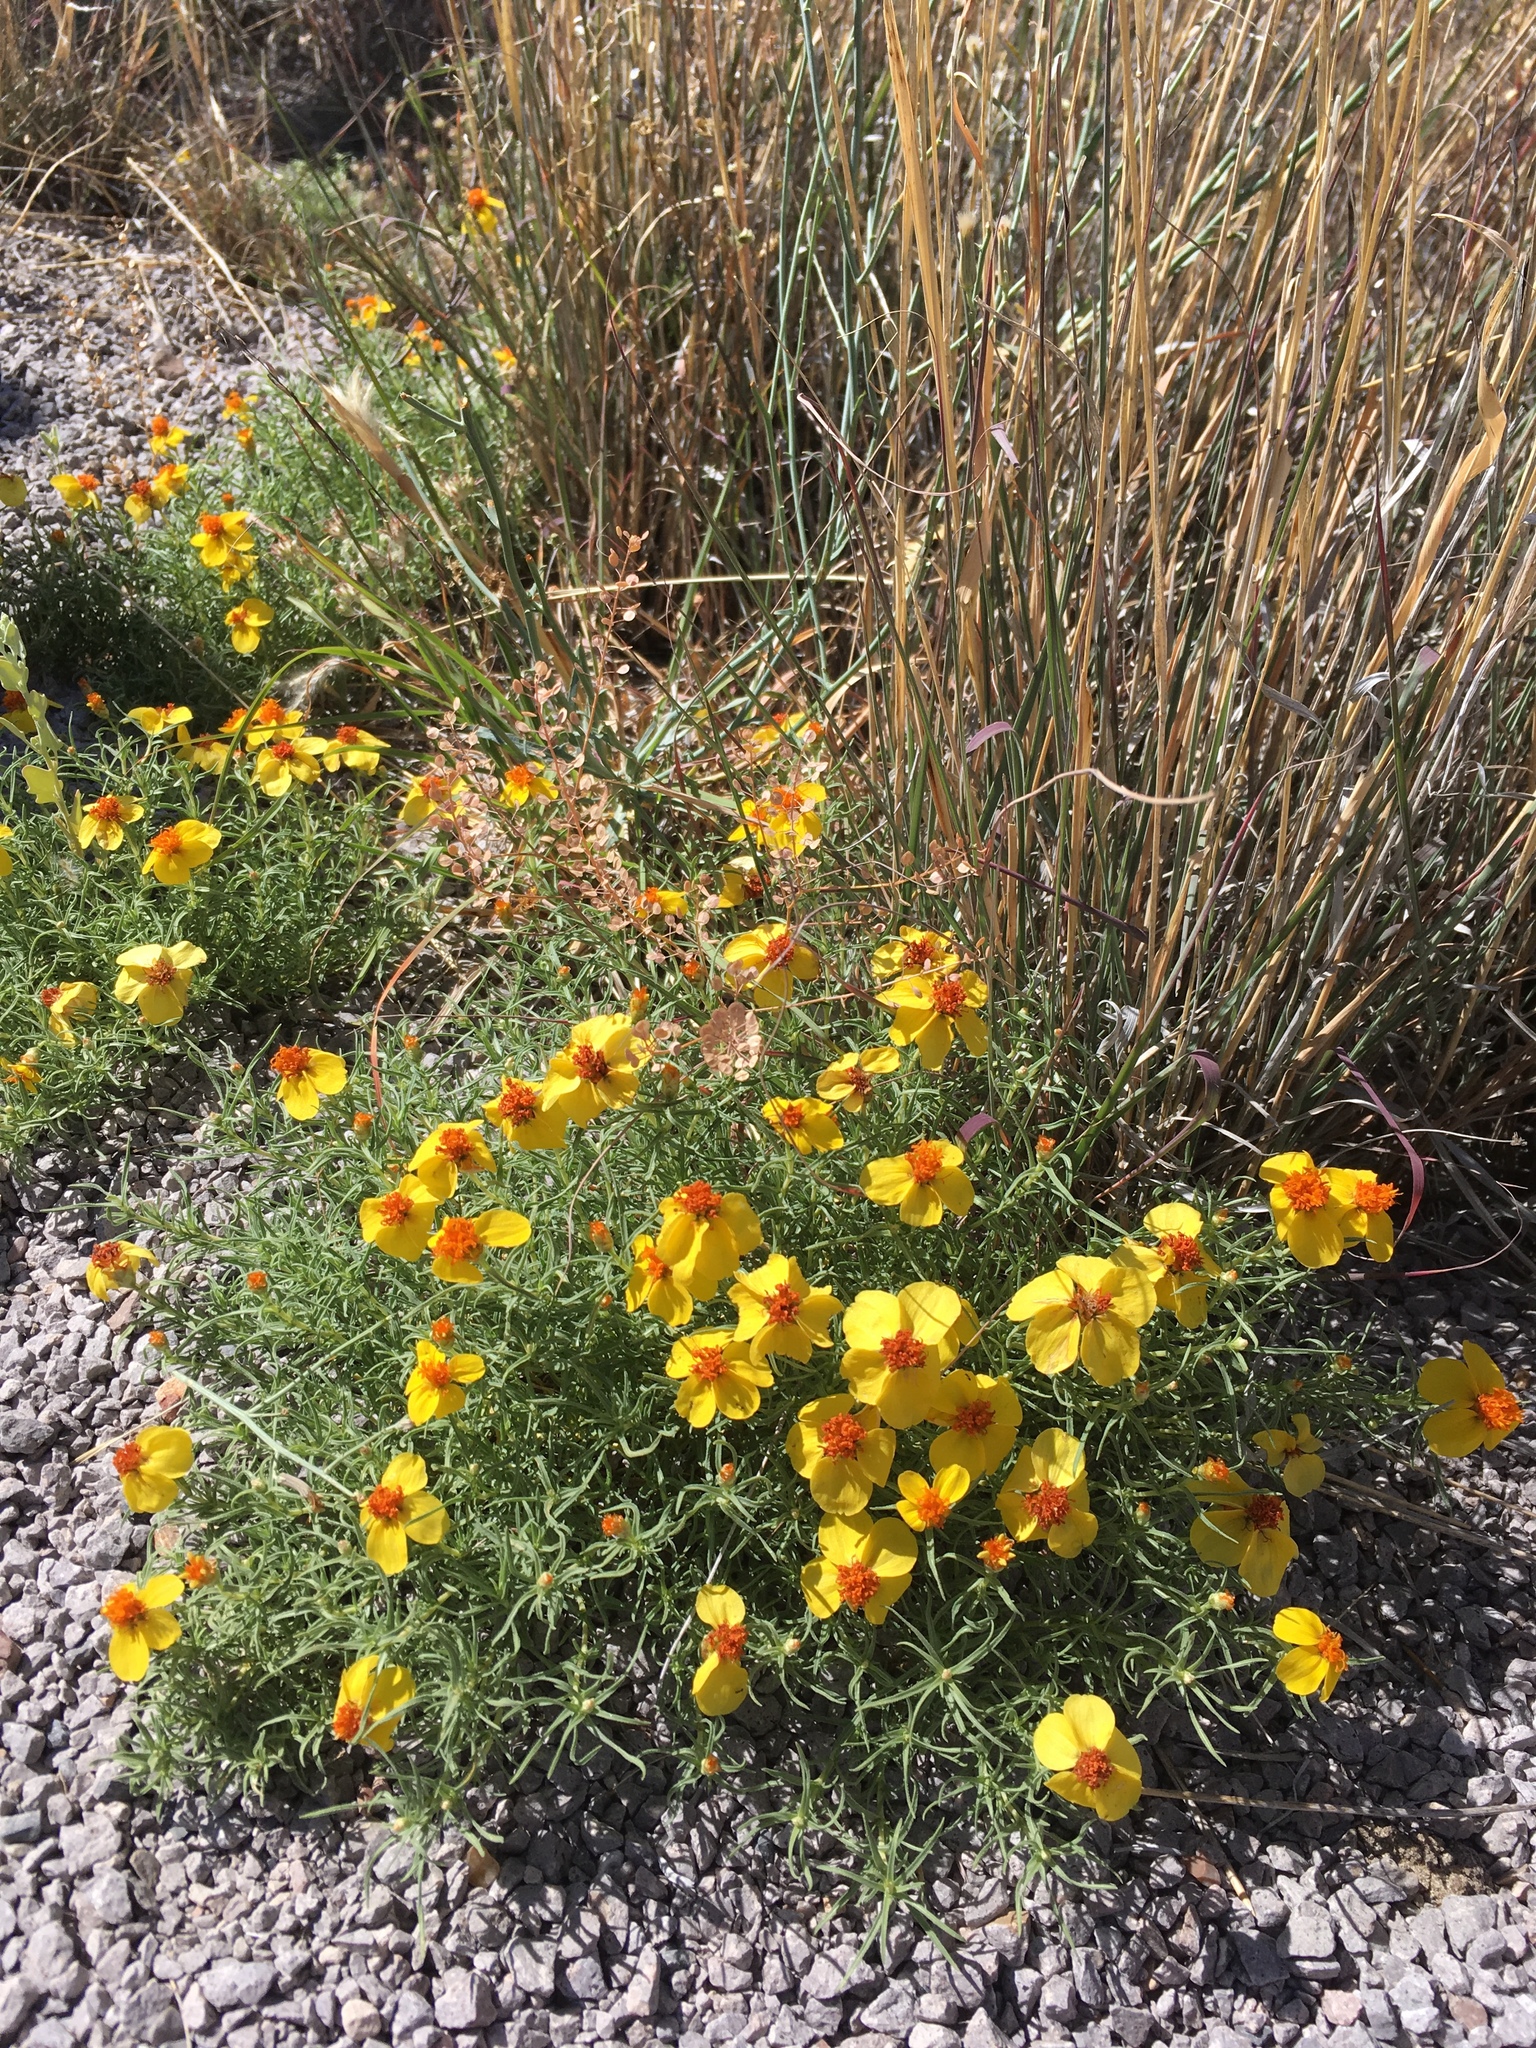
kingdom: Plantae
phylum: Tracheophyta
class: Magnoliopsida
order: Asterales
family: Asteraceae
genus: Zinnia
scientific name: Zinnia grandiflora
